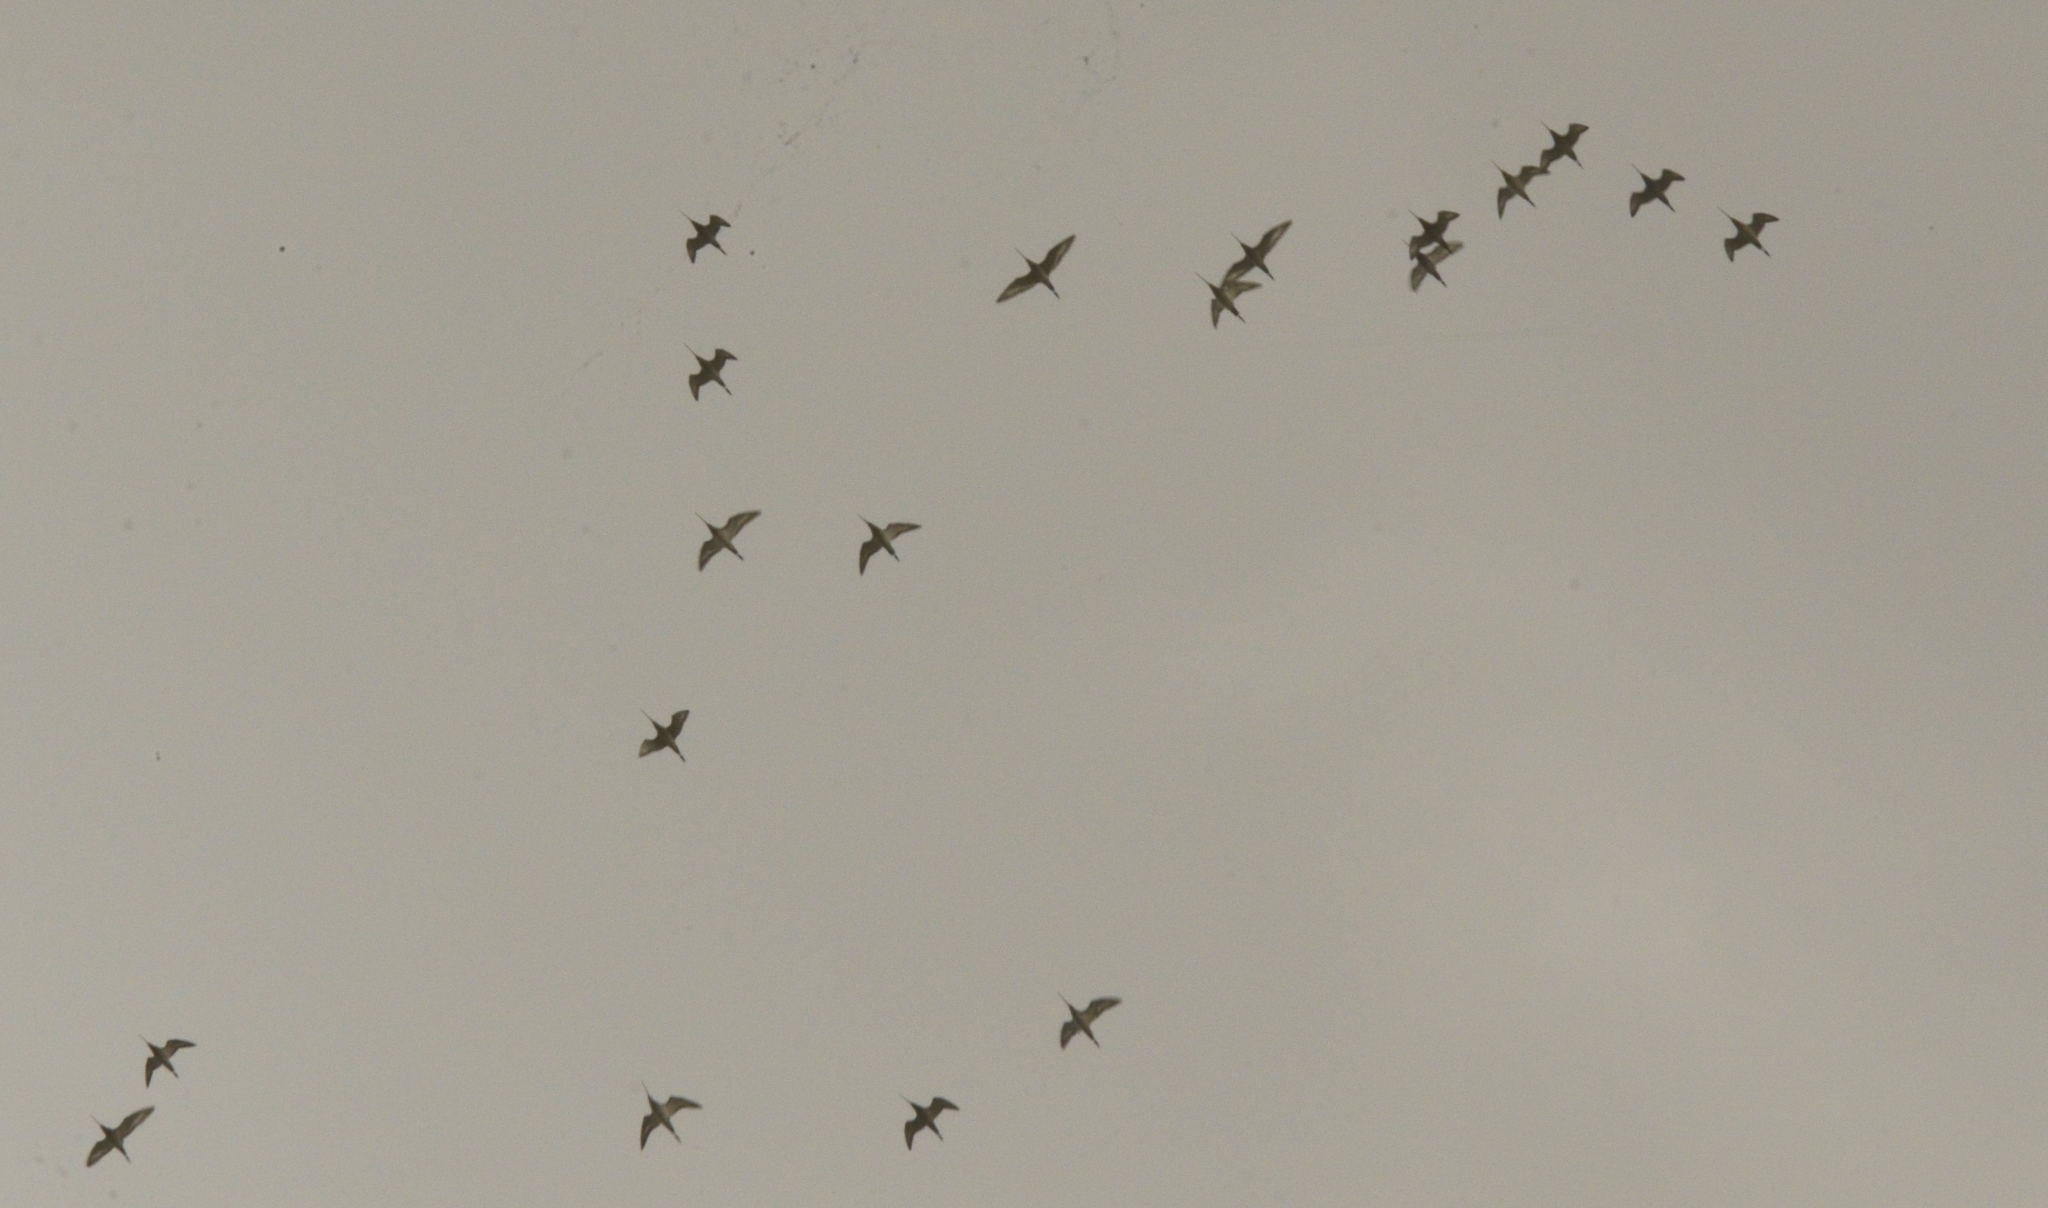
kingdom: Animalia
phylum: Chordata
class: Aves
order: Charadriiformes
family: Scolopacidae
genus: Limosa
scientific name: Limosa limosa
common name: Black-tailed godwit
